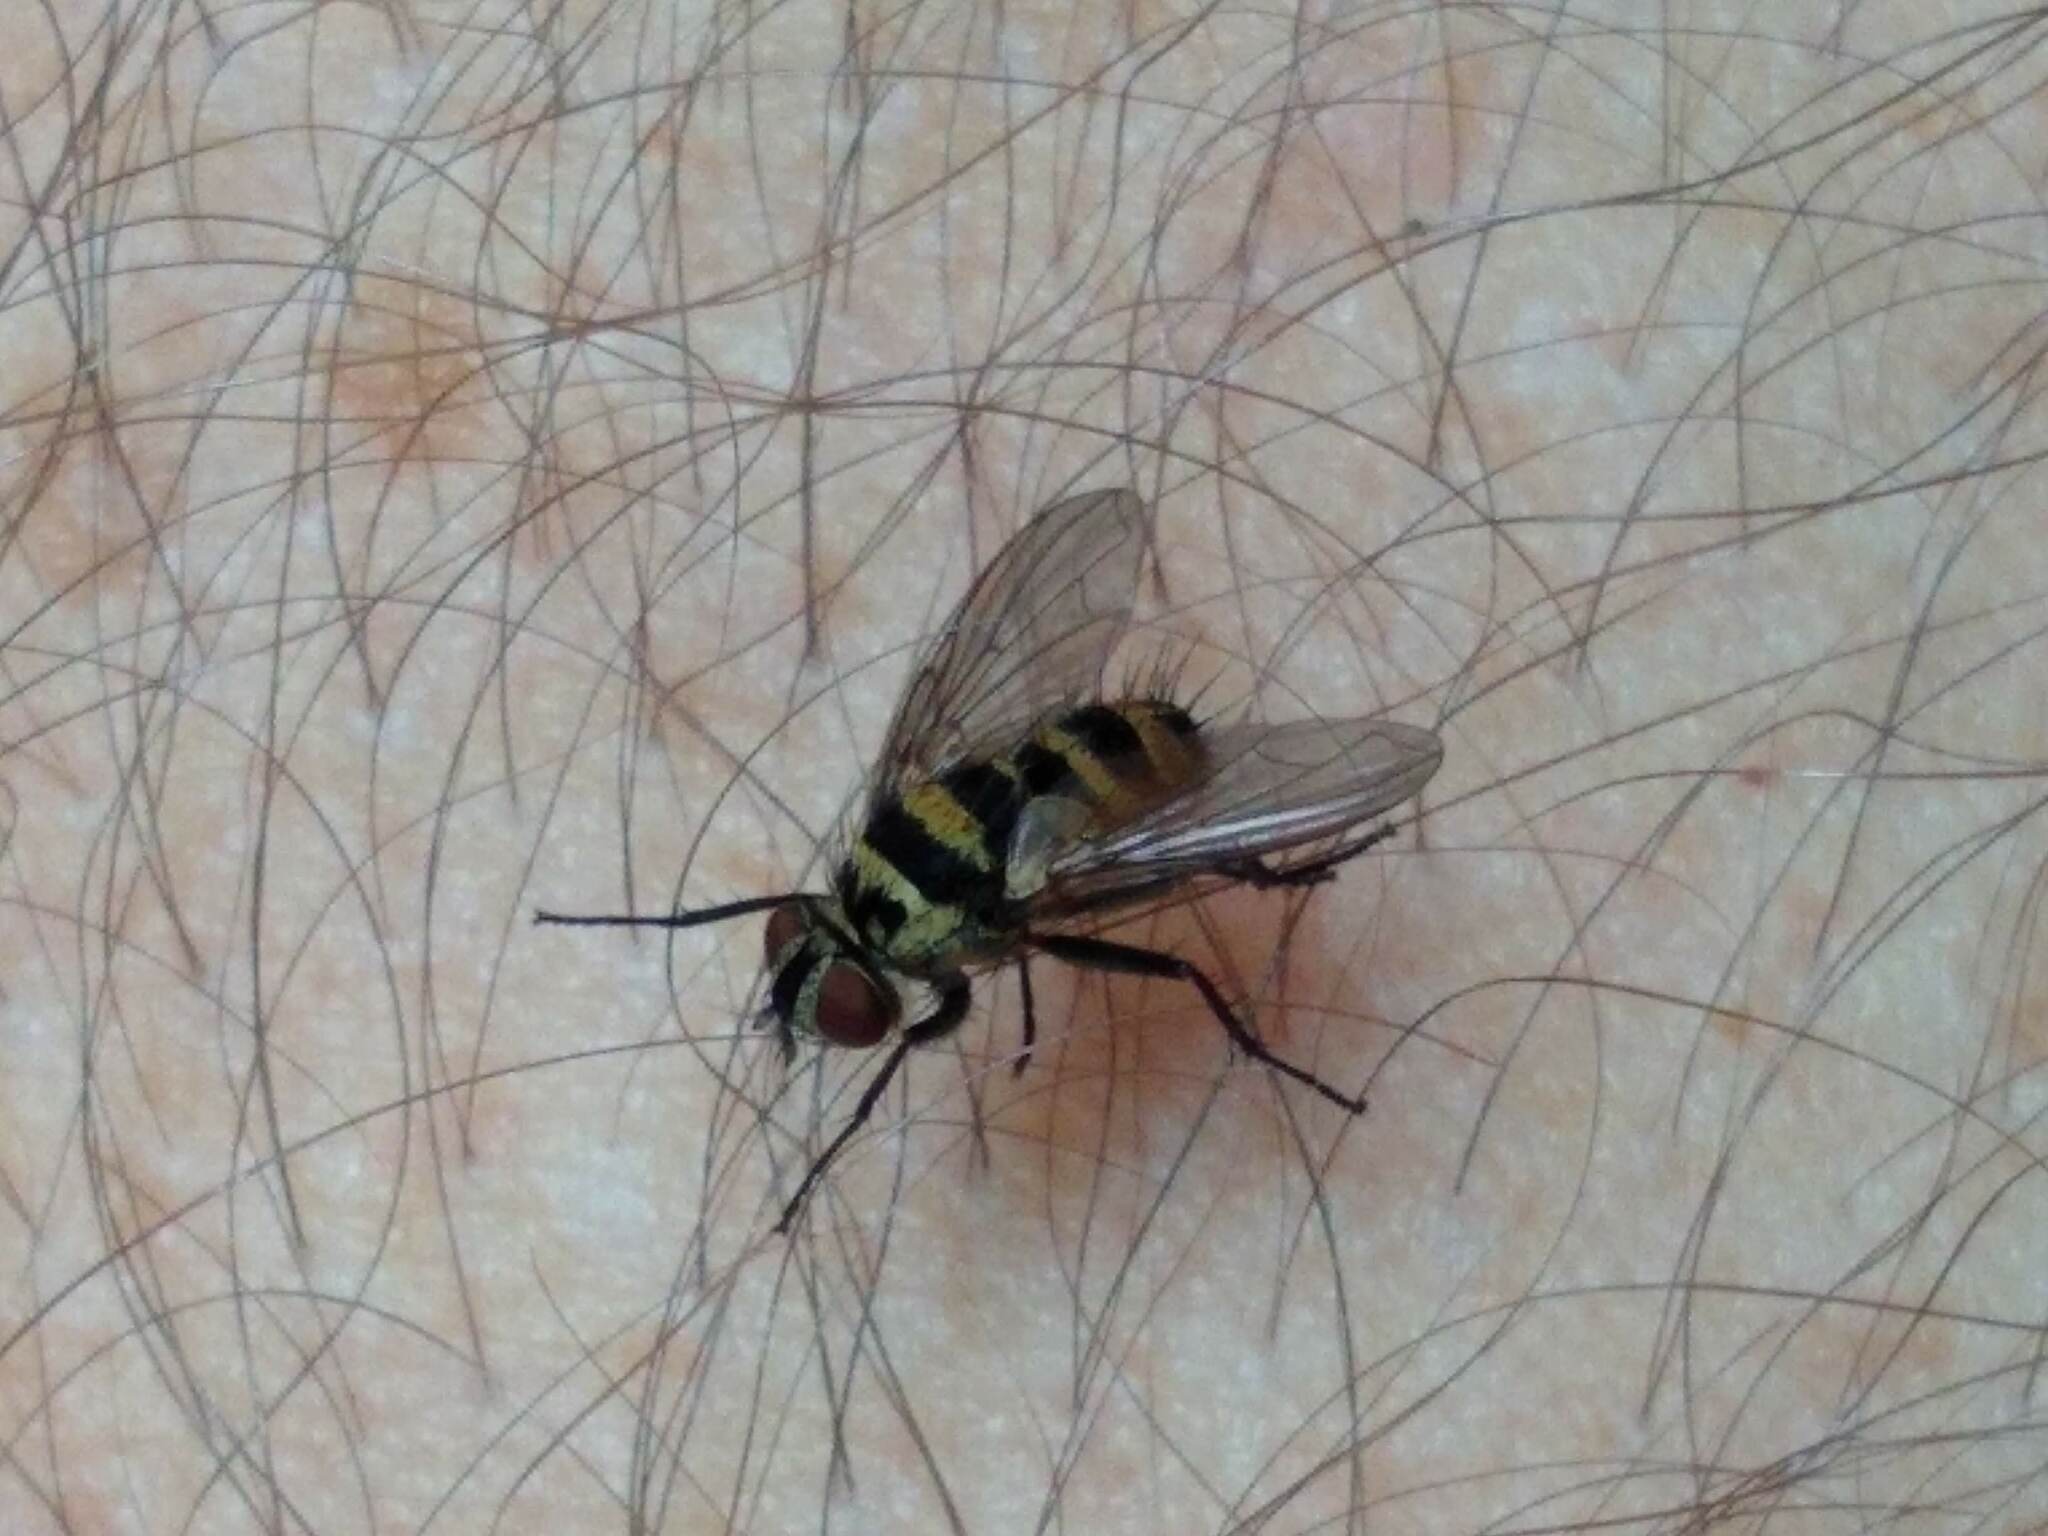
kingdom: Animalia
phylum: Arthropoda
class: Insecta
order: Diptera
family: Tachinidae
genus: Trigonospila
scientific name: Trigonospila brevifacies
